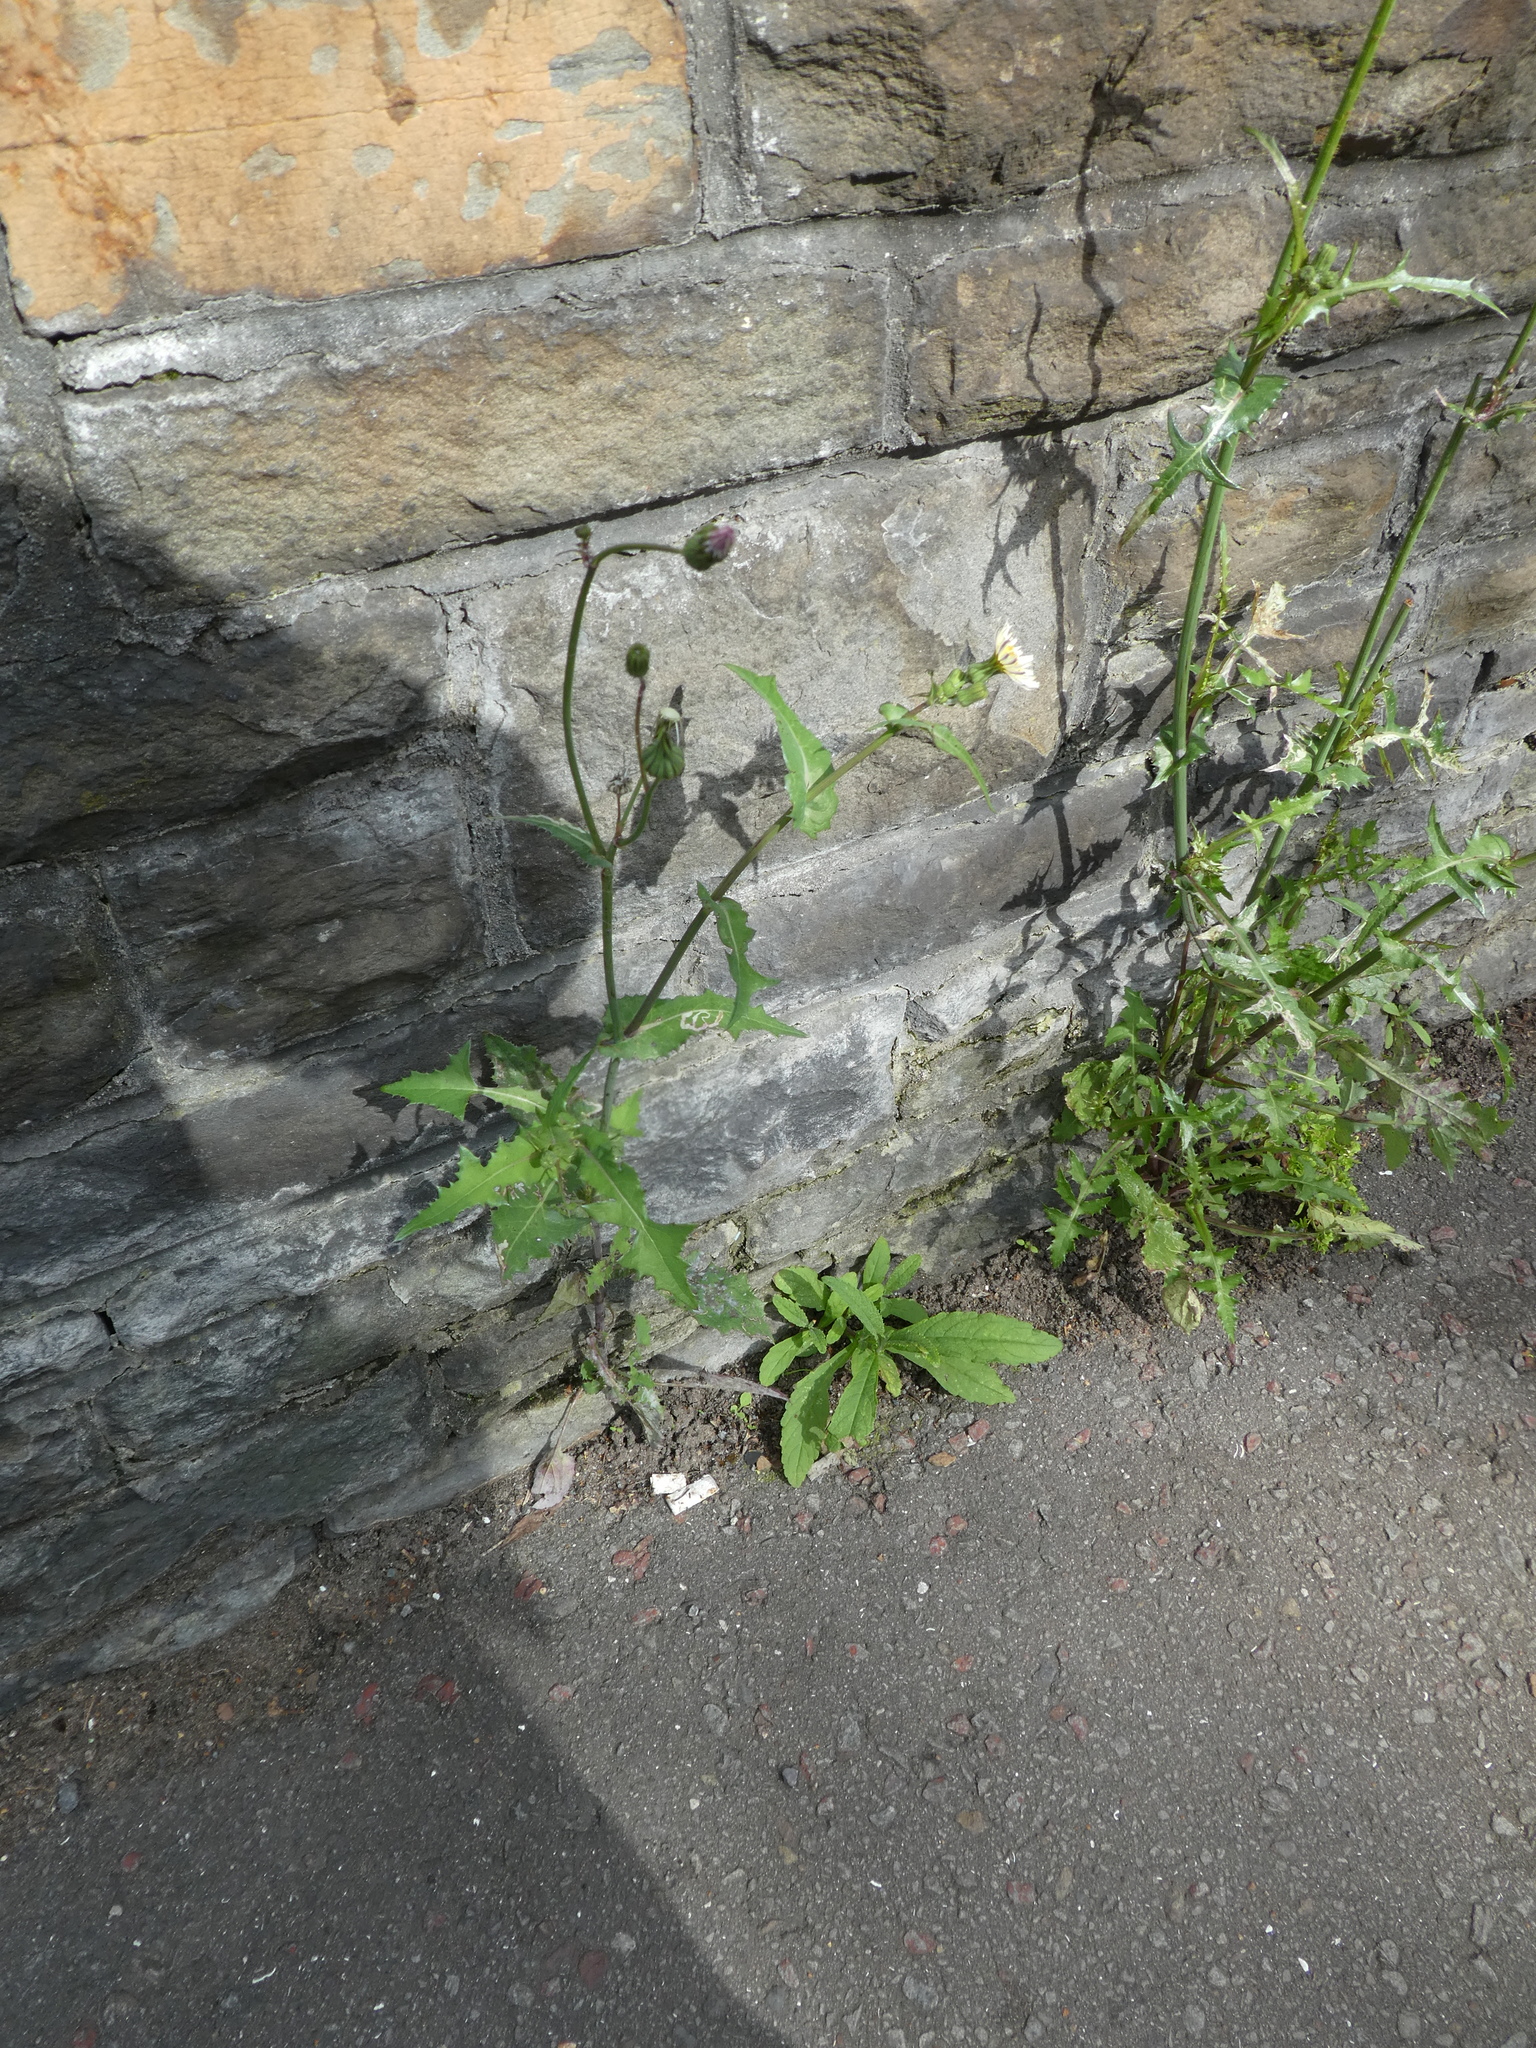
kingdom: Plantae
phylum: Tracheophyta
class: Magnoliopsida
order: Asterales
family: Asteraceae
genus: Sonchus
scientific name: Sonchus oleraceus
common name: Common sowthistle
